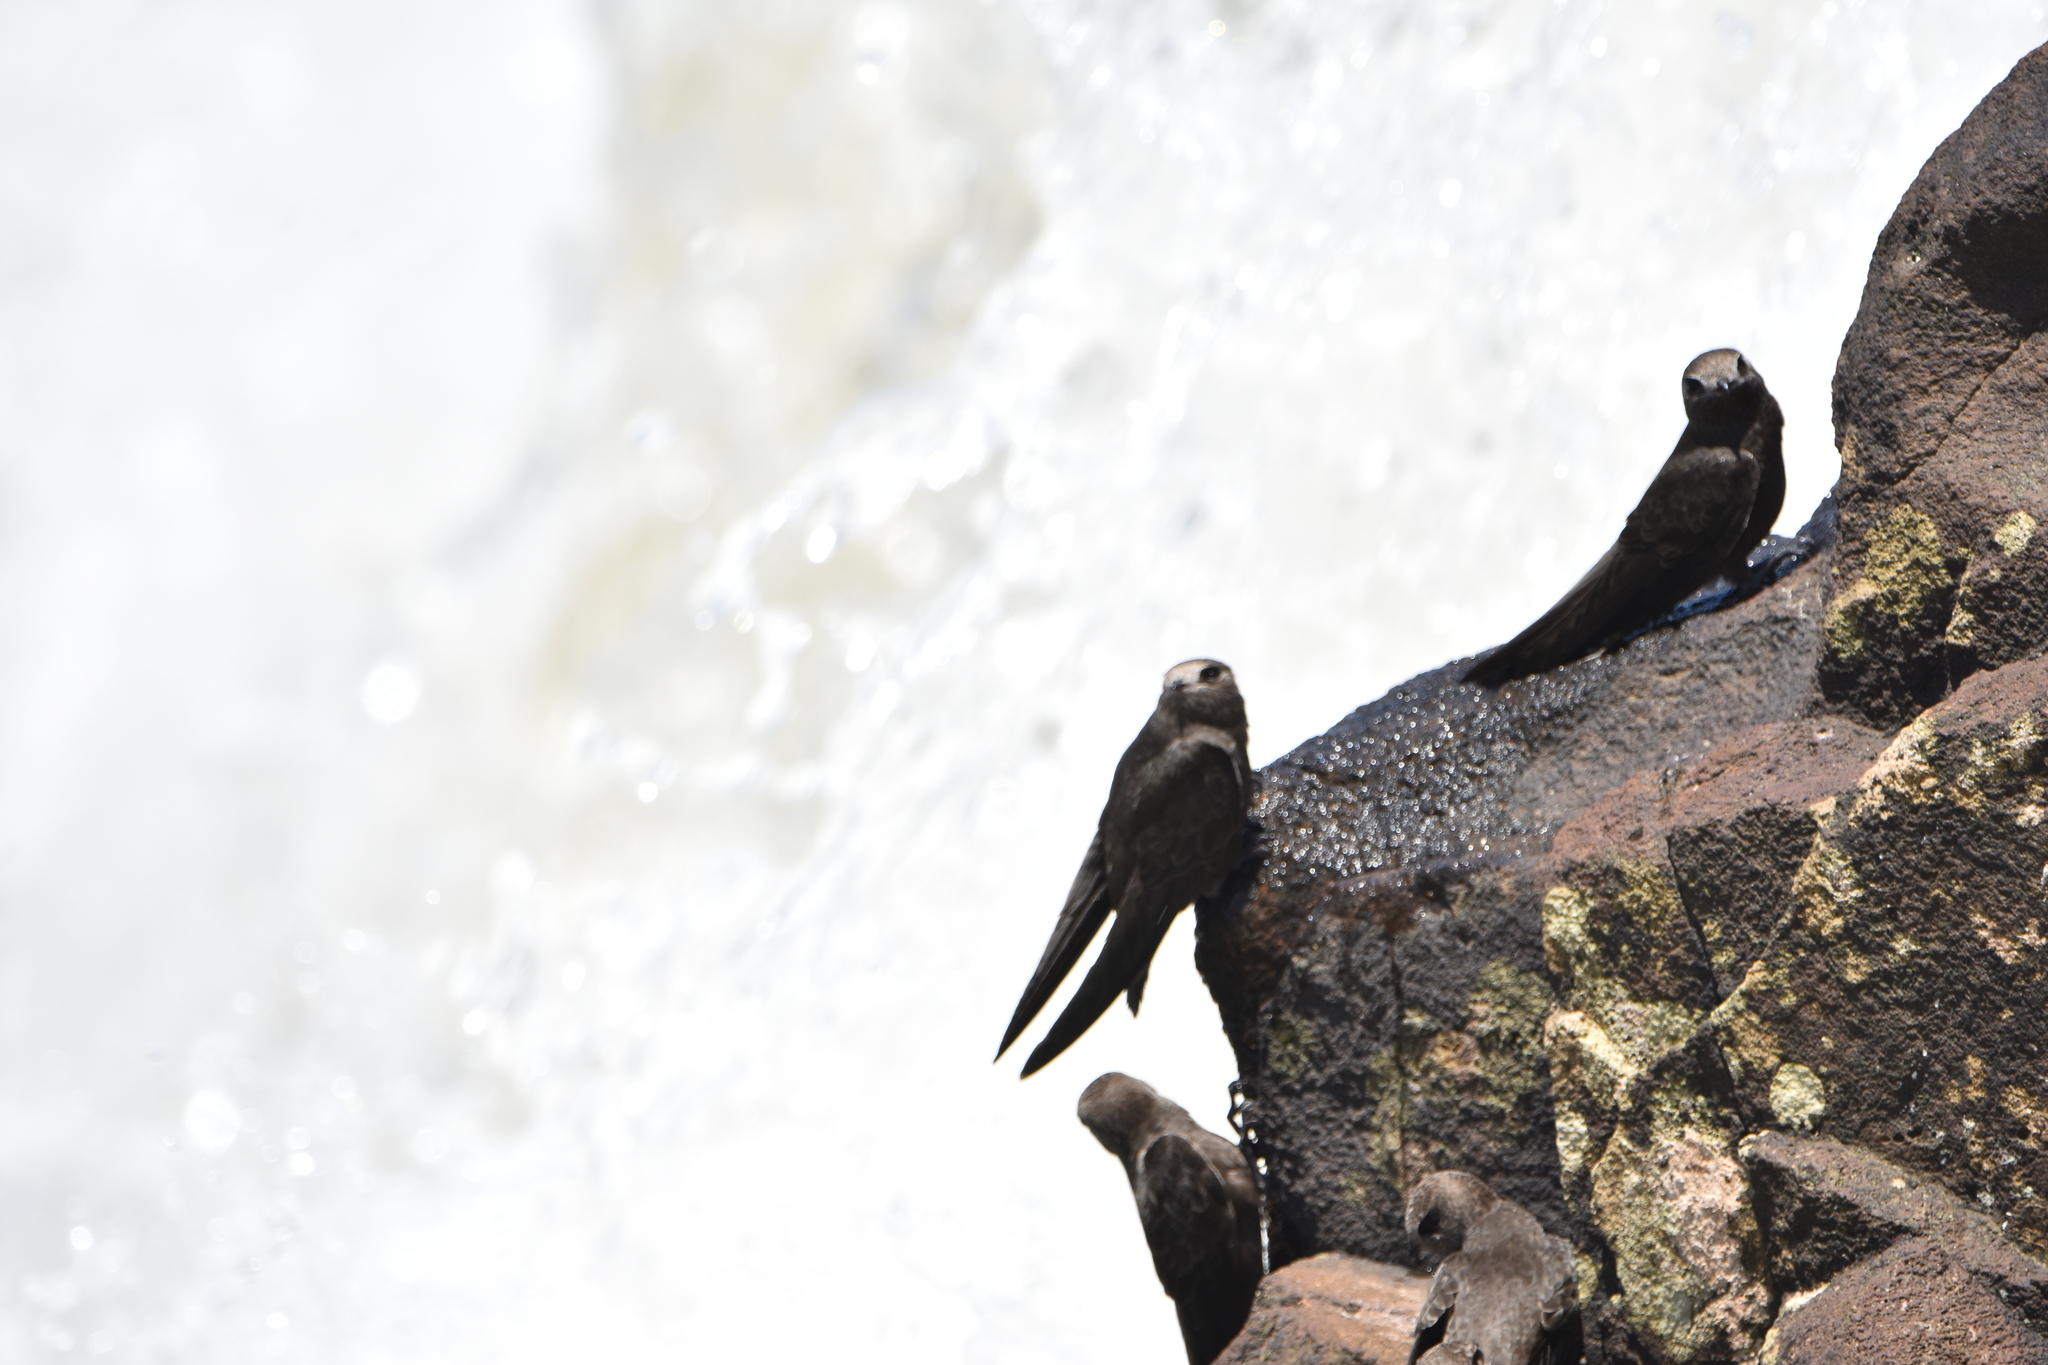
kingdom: Animalia
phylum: Chordata
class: Aves
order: Apodiformes
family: Apodidae
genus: Cypseloides
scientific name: Cypseloides senex
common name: Great dusky swift
